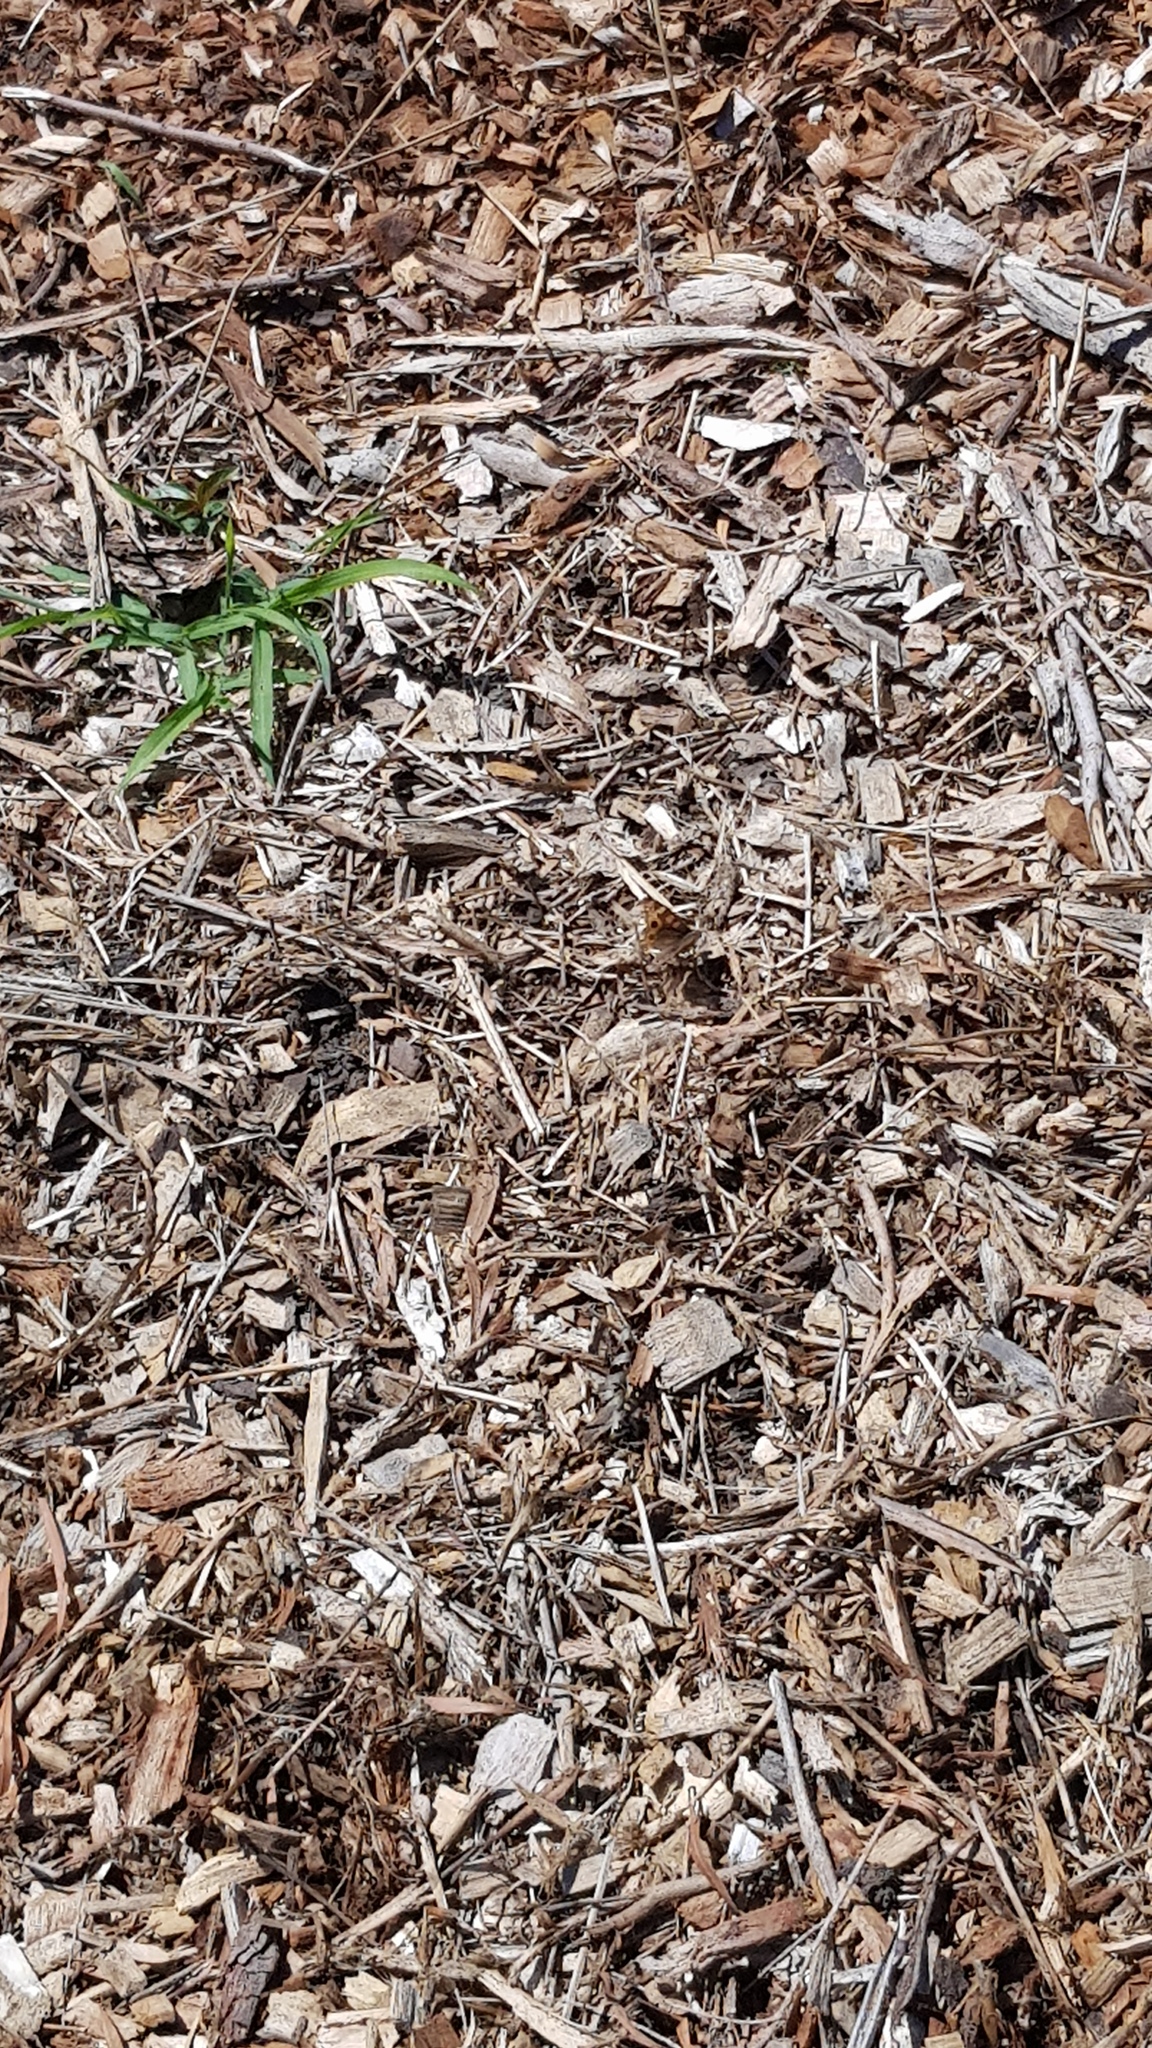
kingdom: Animalia
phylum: Arthropoda
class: Insecta
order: Lepidoptera
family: Nymphalidae
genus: Junonia
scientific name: Junonia villida
